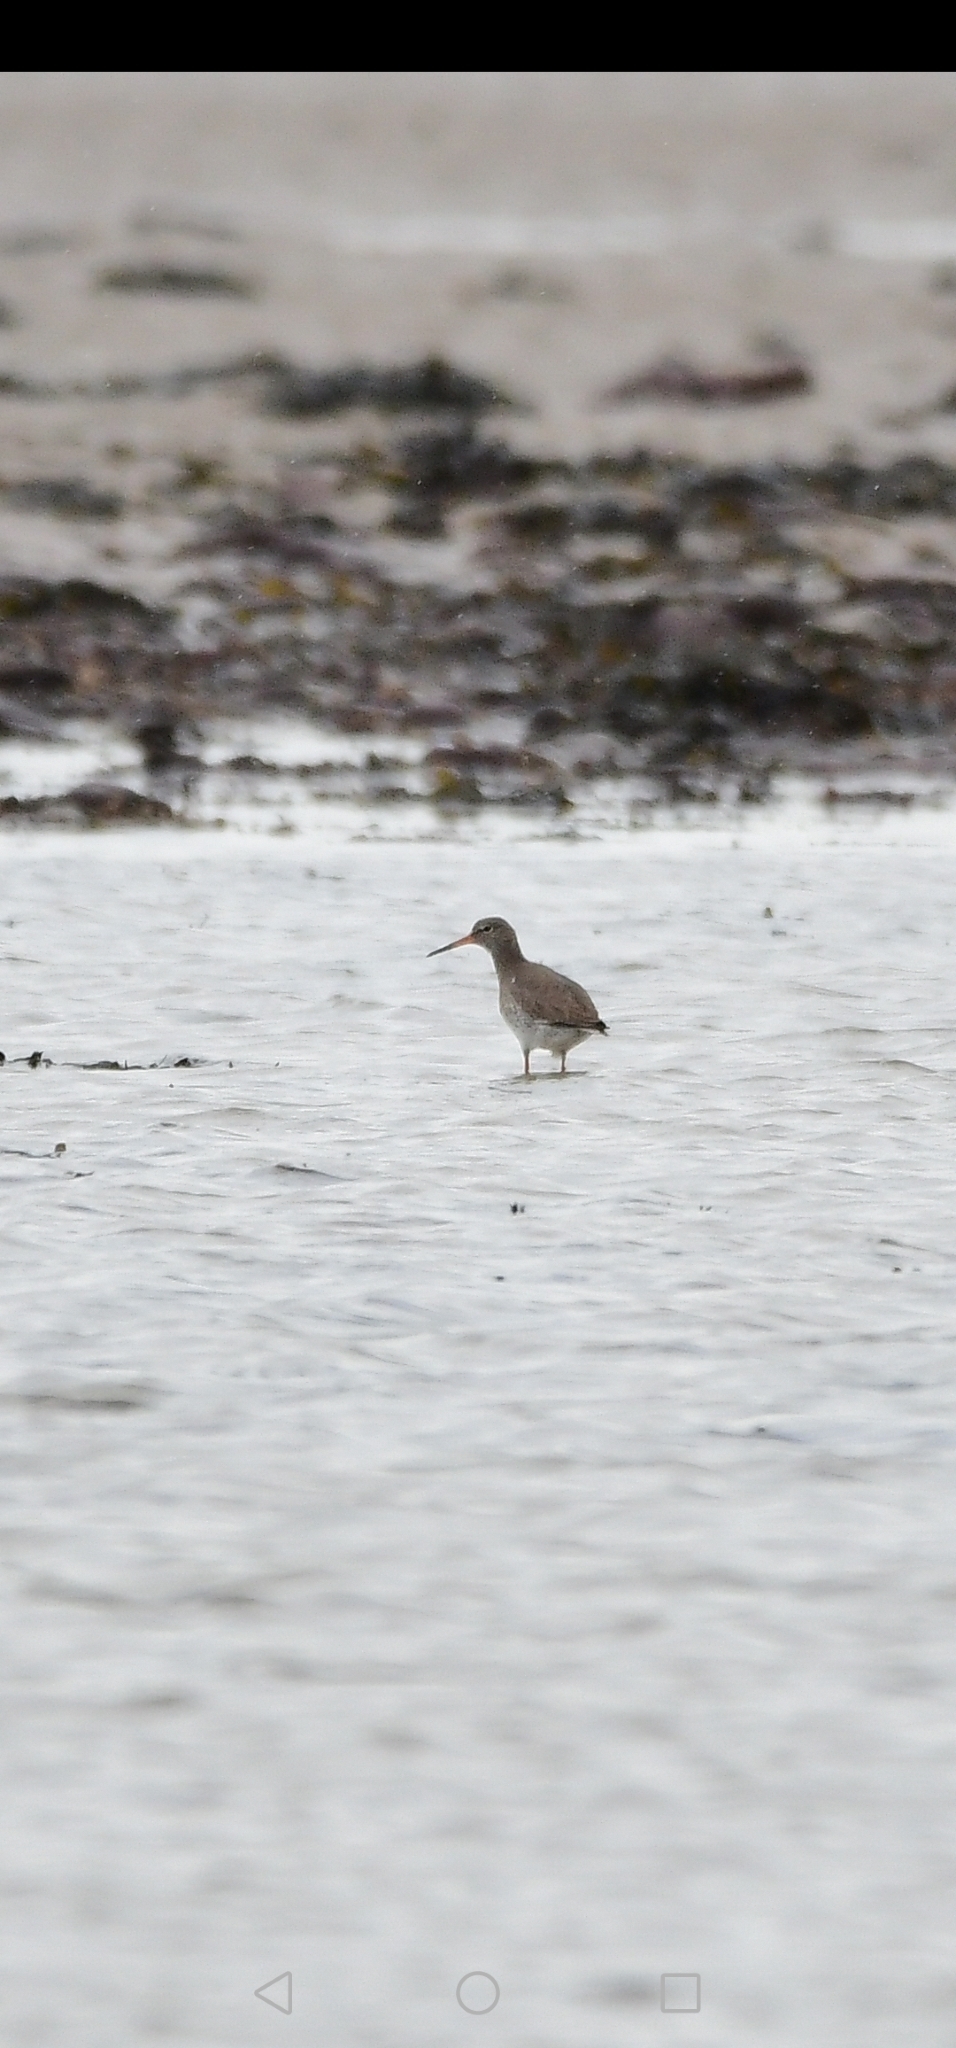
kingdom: Animalia
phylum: Chordata
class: Aves
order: Charadriiformes
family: Scolopacidae
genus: Tringa
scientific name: Tringa totanus
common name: Common redshank
